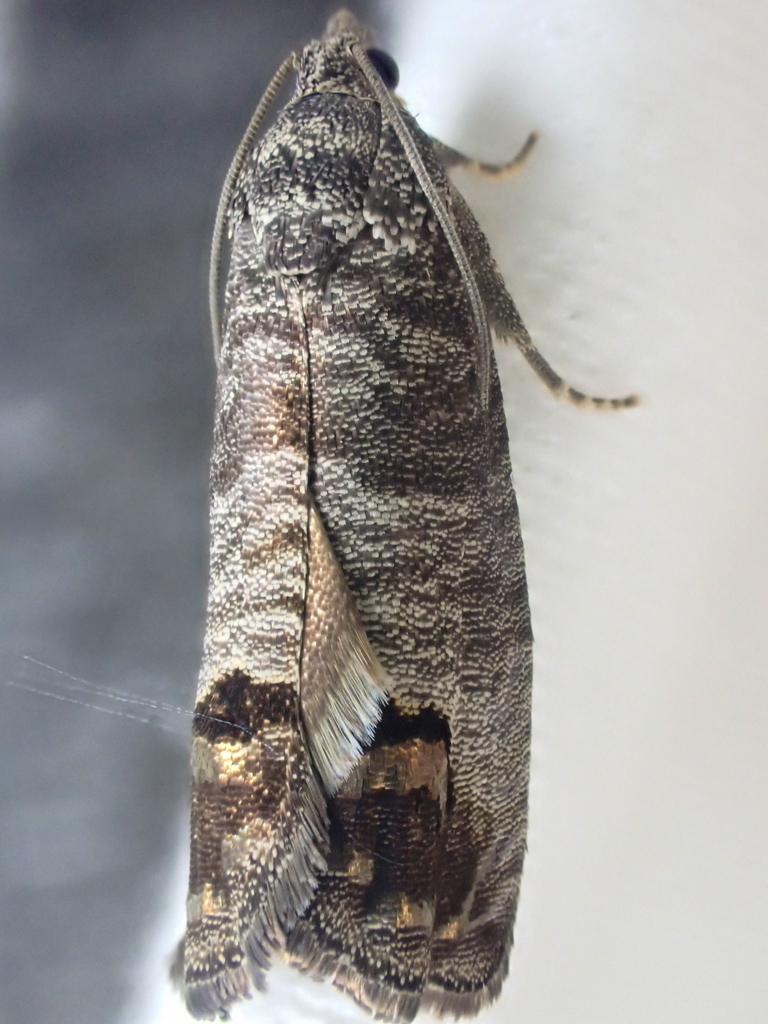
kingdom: Animalia
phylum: Arthropoda
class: Insecta
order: Lepidoptera
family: Tortricidae
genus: Cydia
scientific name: Cydia pomonella
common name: Codling moth
